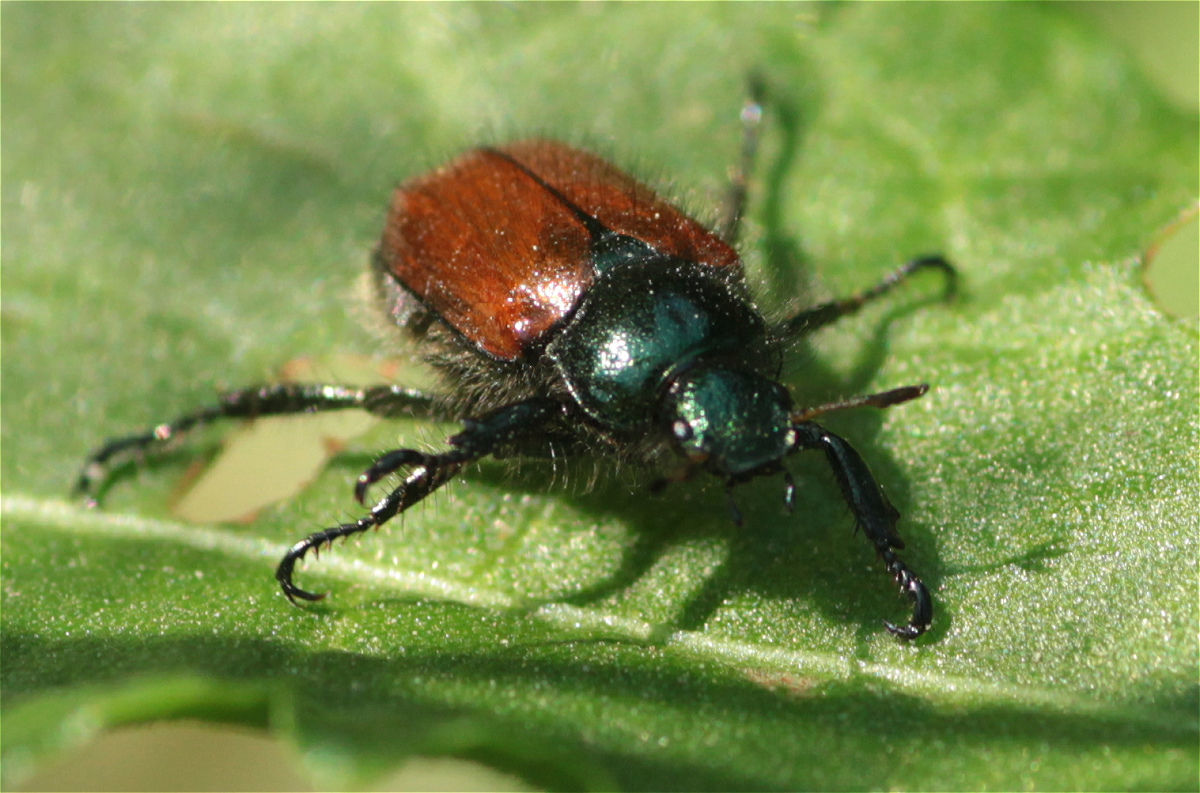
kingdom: Animalia
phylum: Arthropoda
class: Insecta
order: Coleoptera
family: Scarabaeidae
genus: Phyllopertha
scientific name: Phyllopertha horticola
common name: Garden chafer
